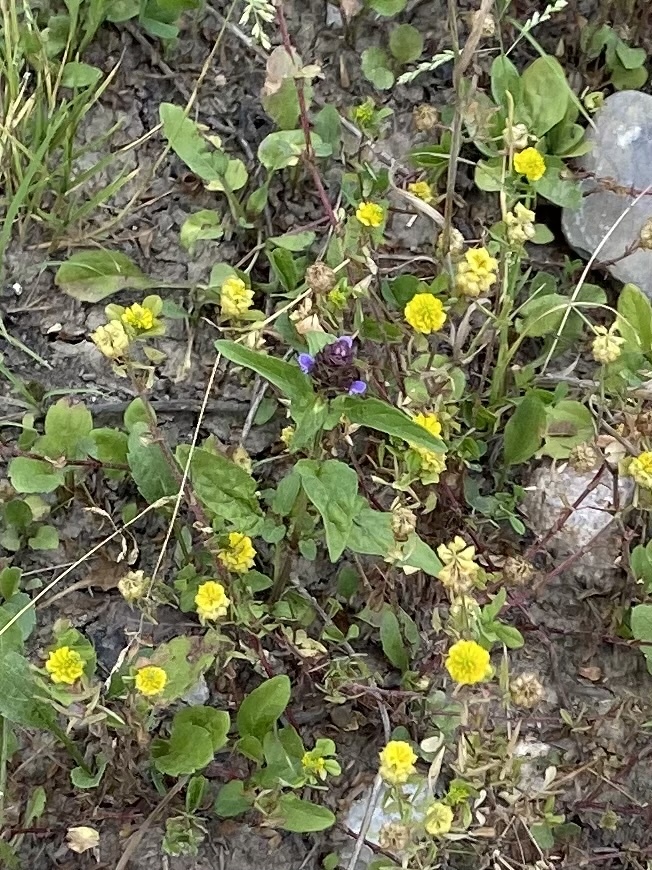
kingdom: Plantae
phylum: Tracheophyta
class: Magnoliopsida
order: Lamiales
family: Lamiaceae
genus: Prunella
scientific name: Prunella vulgaris
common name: Heal-all
